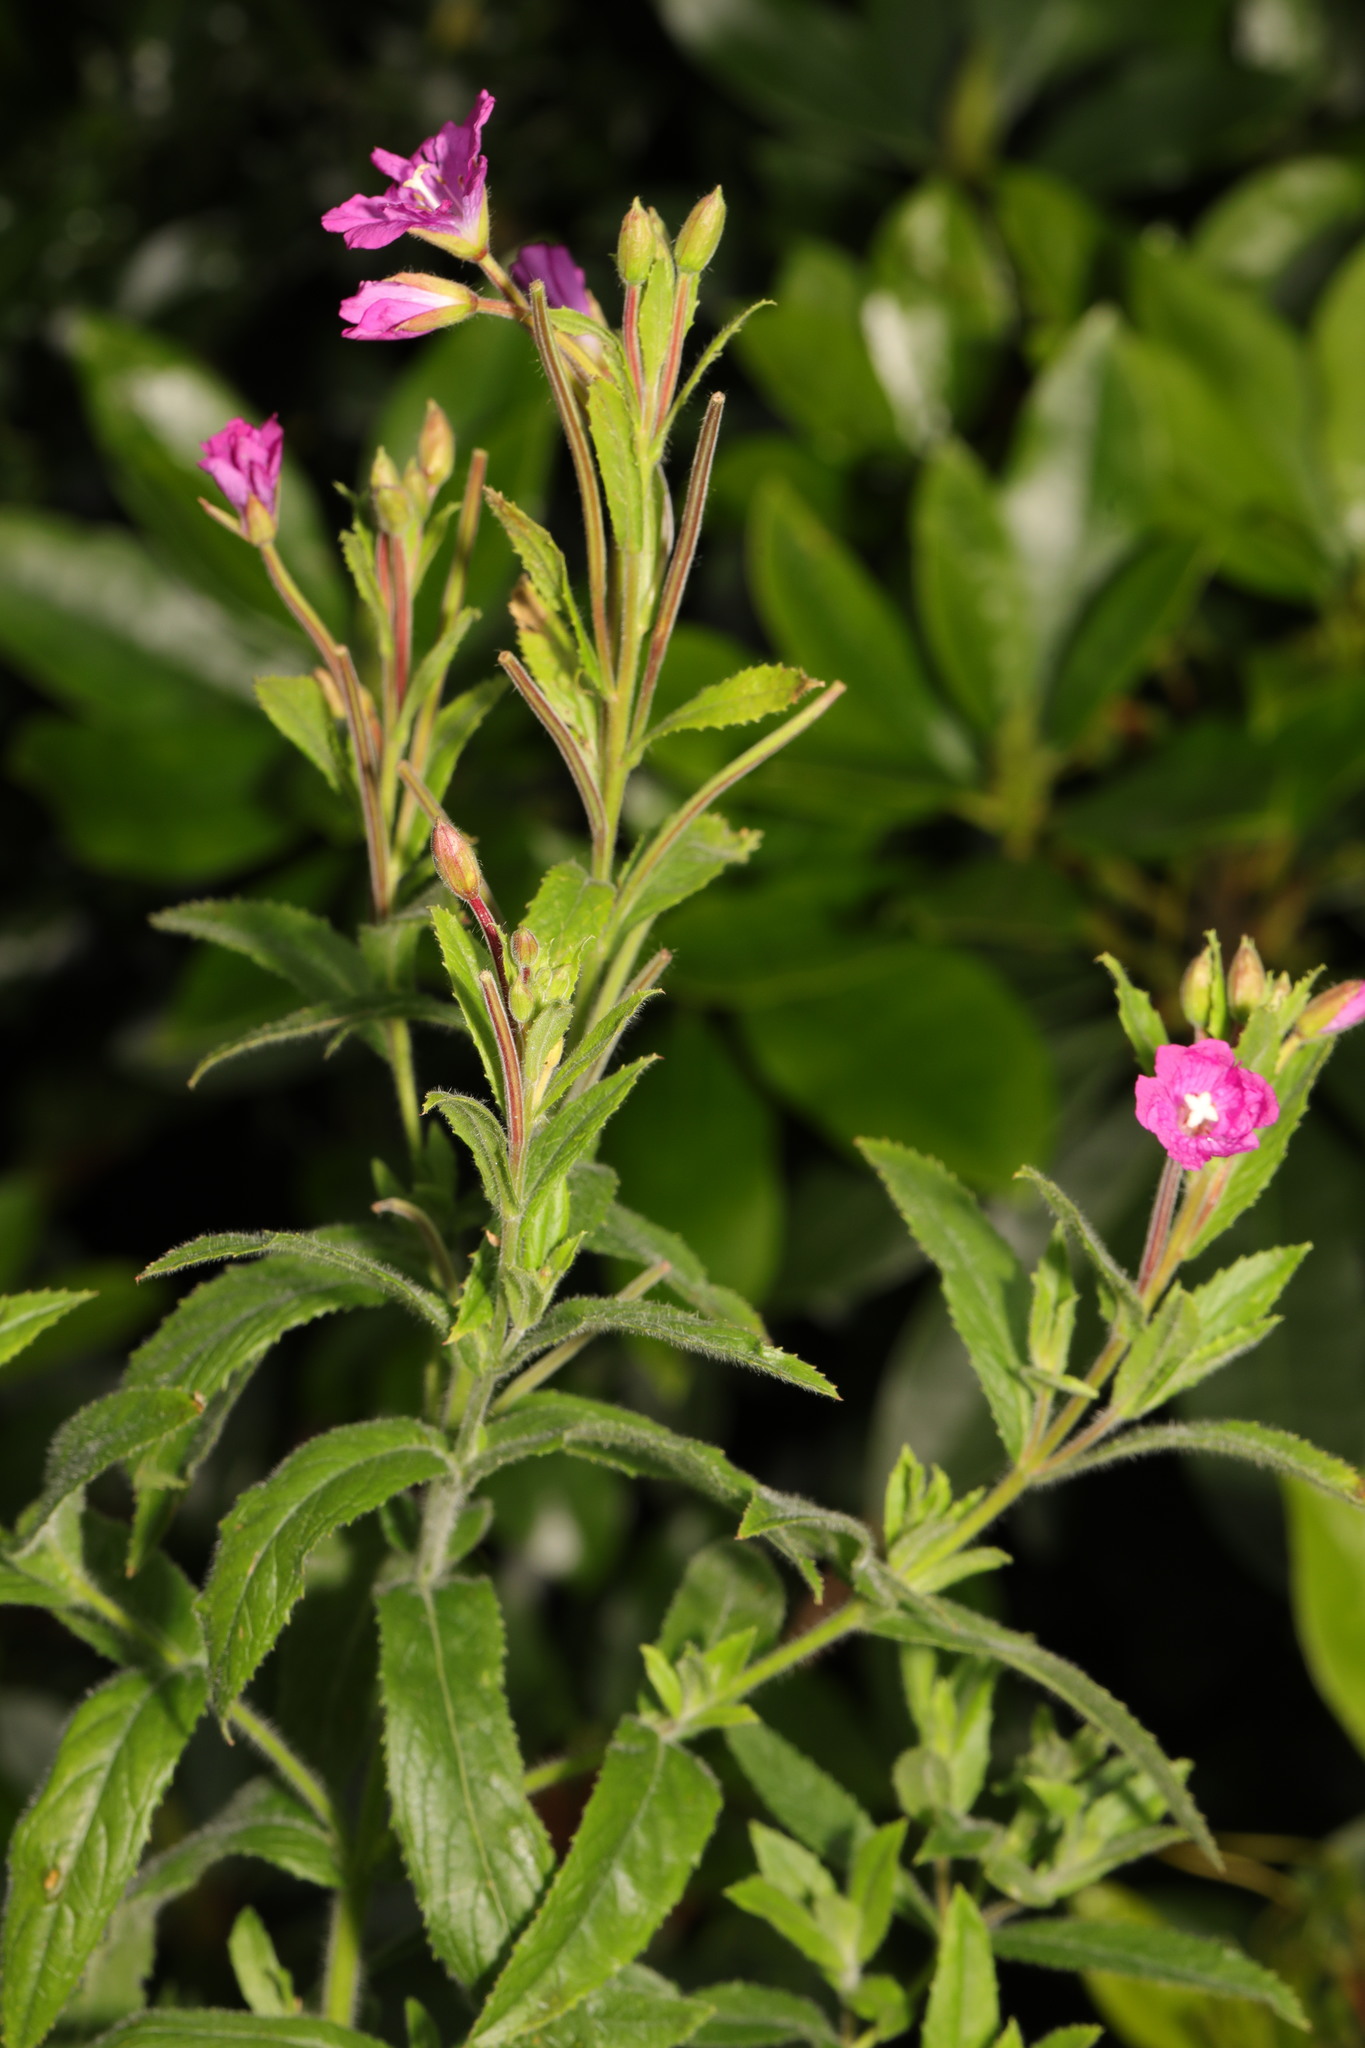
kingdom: Plantae
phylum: Tracheophyta
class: Magnoliopsida
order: Myrtales
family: Onagraceae
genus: Epilobium
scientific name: Epilobium hirsutum
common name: Great willowherb
